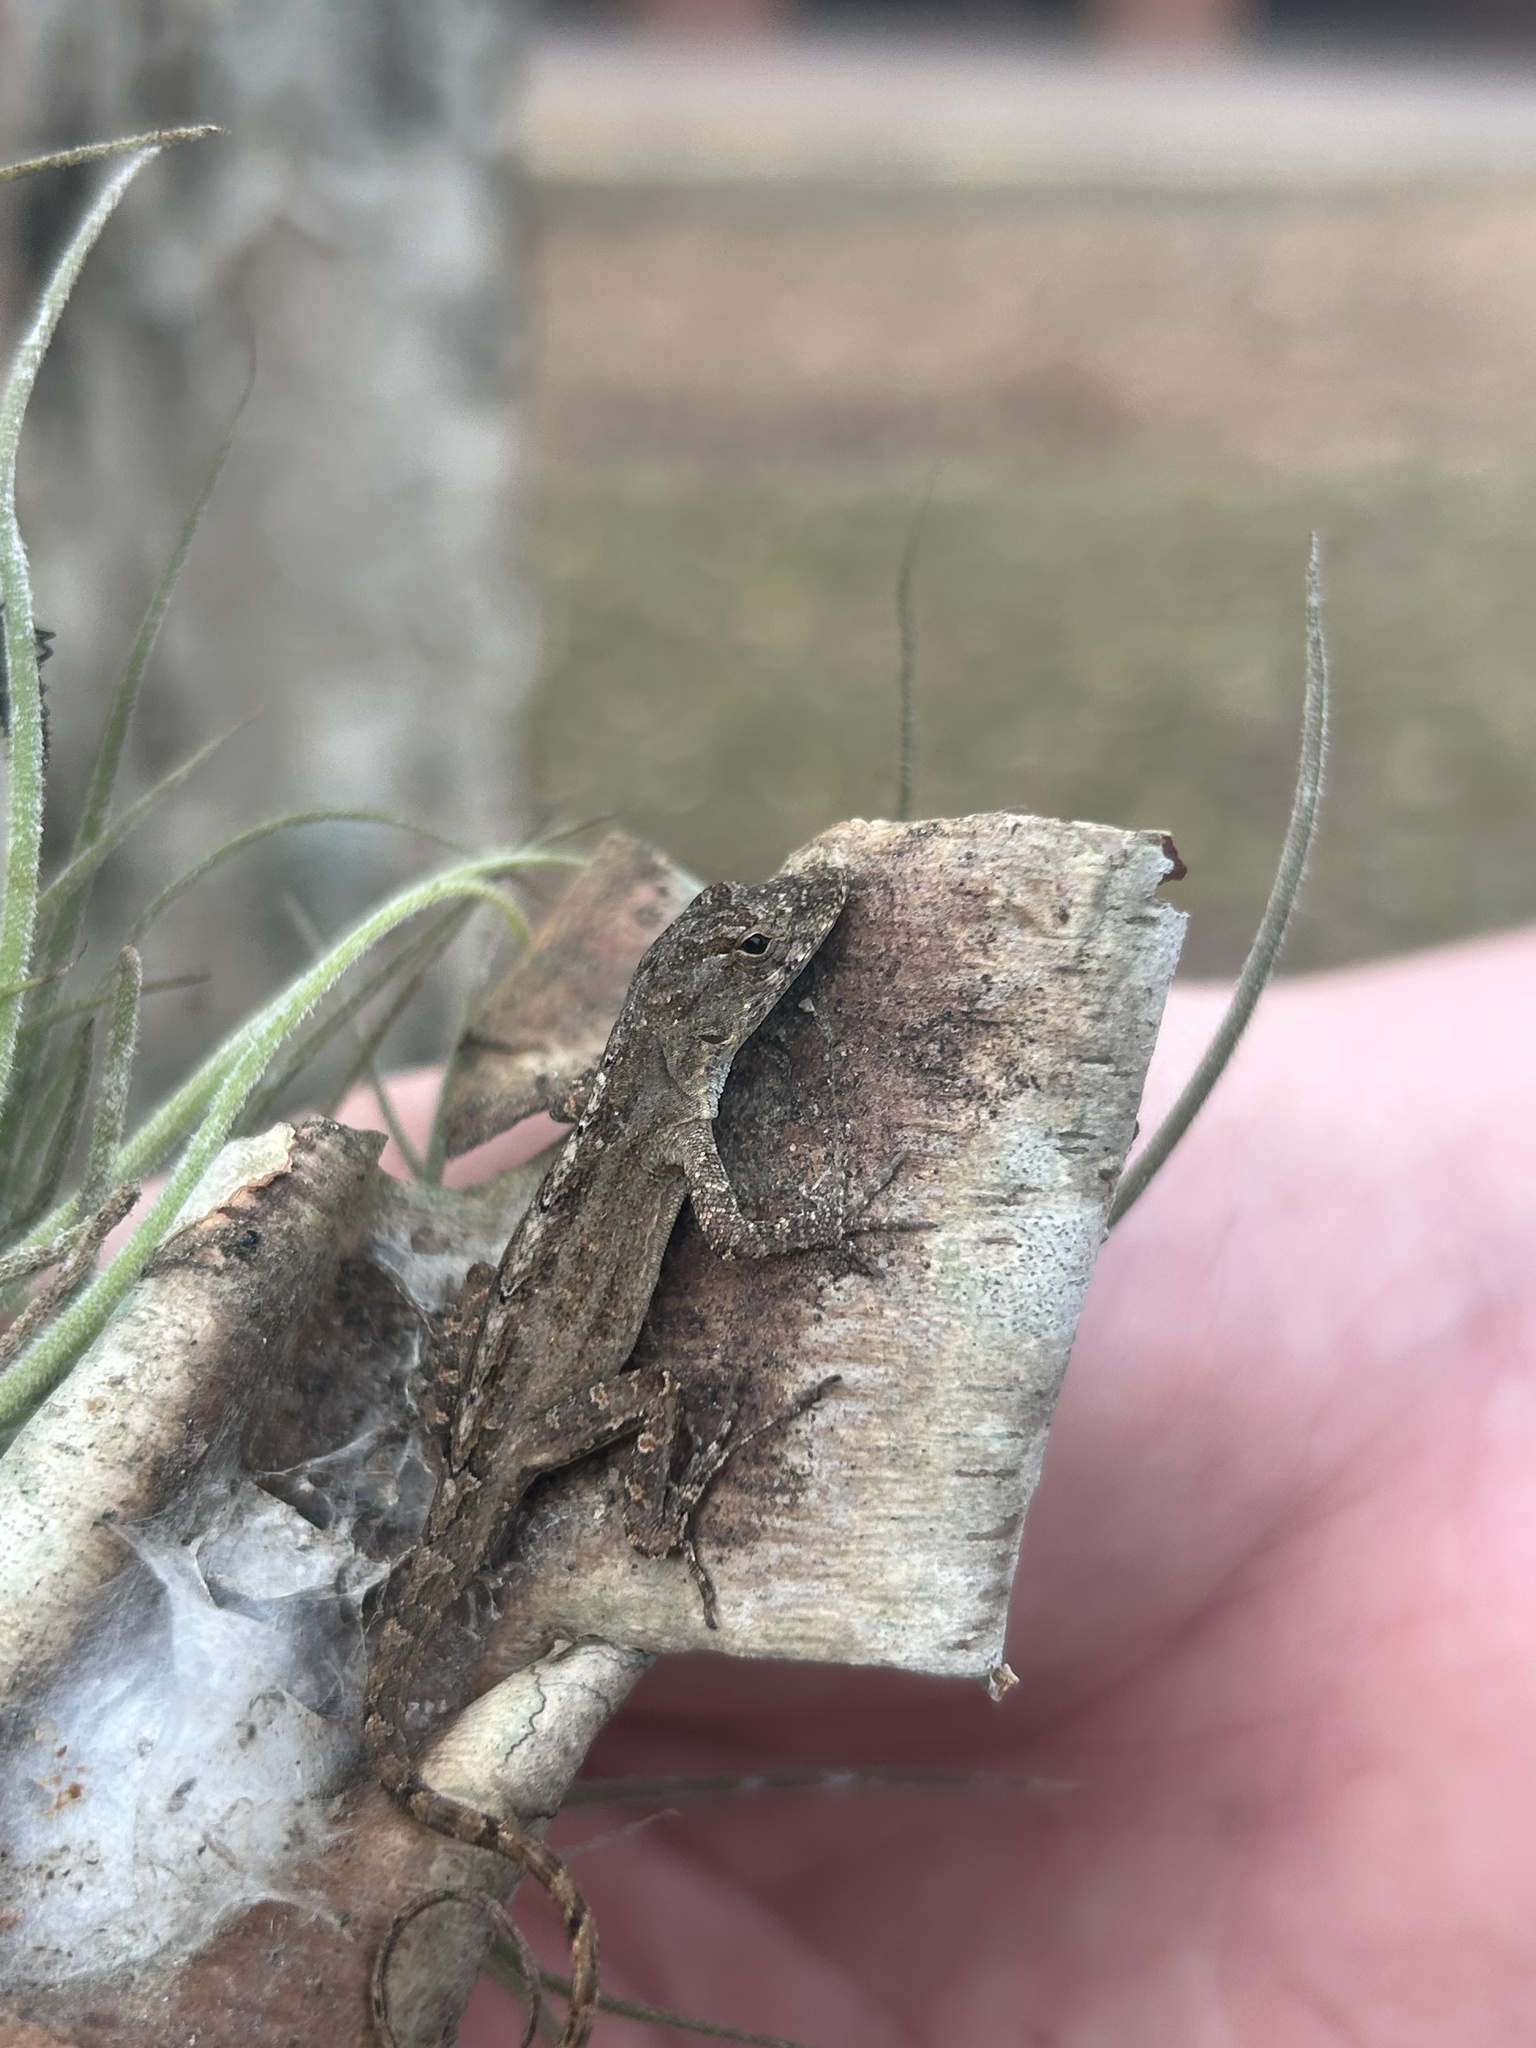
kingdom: Animalia
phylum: Chordata
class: Squamata
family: Dactyloidae
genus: Anolis
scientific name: Anolis sagrei
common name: Brown anole
